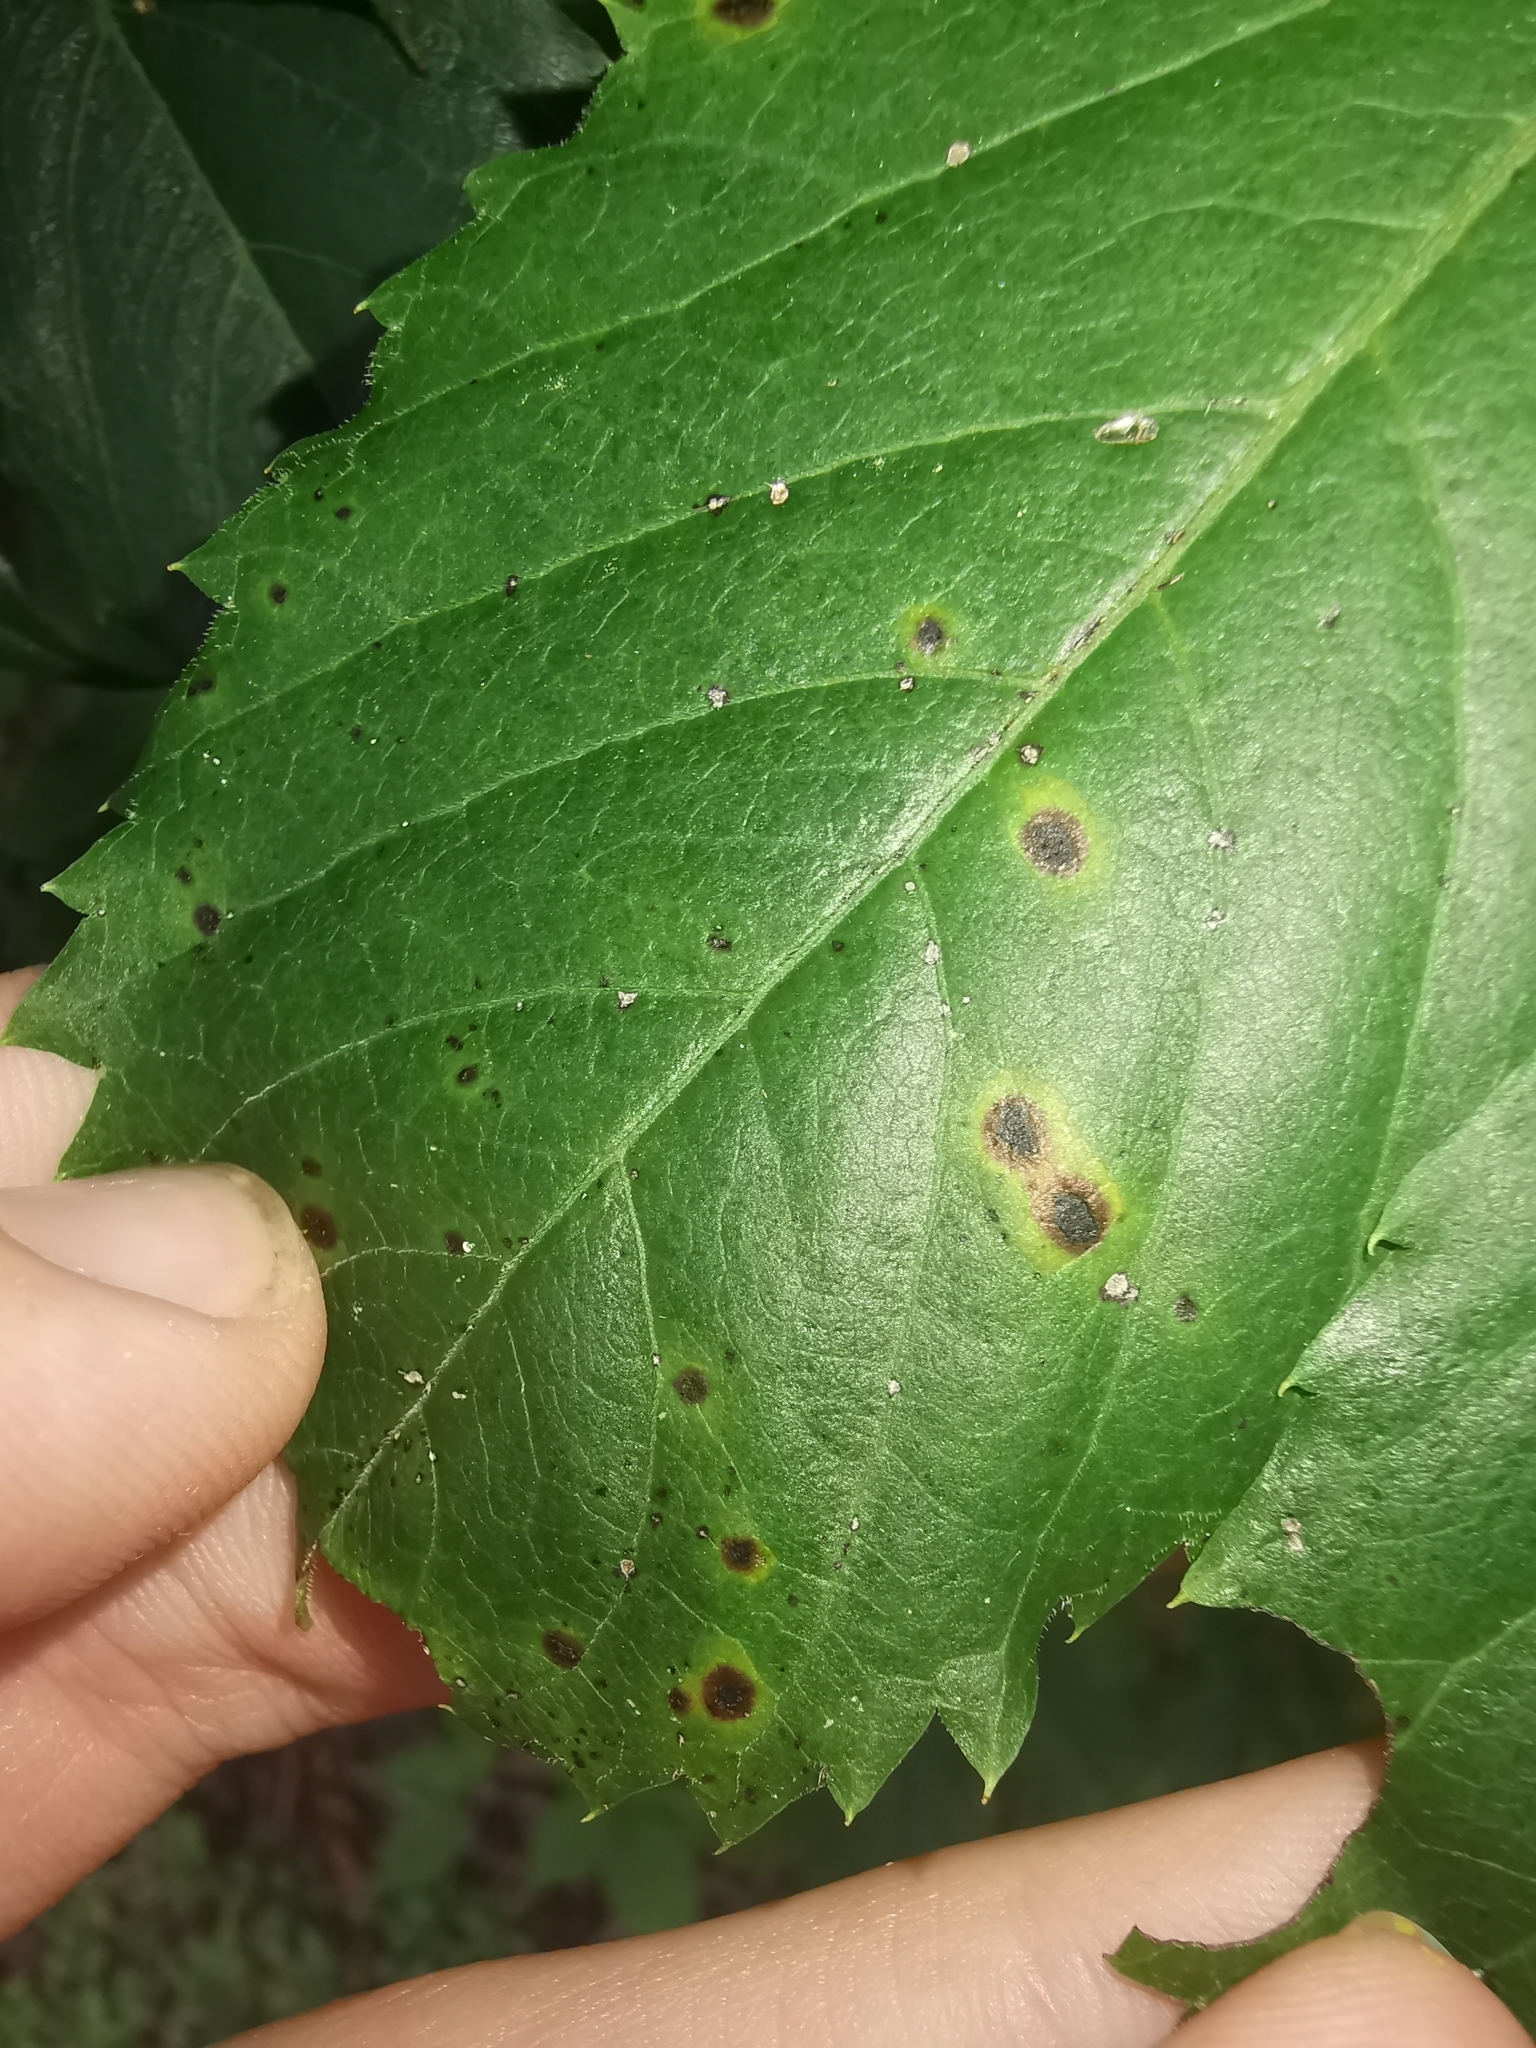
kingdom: Fungi
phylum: Ascomycota
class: Dothideomycetes
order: Botryosphaeriales
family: Phyllostictaceae
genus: Phyllosticta
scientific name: Phyllosticta parthenocissi
